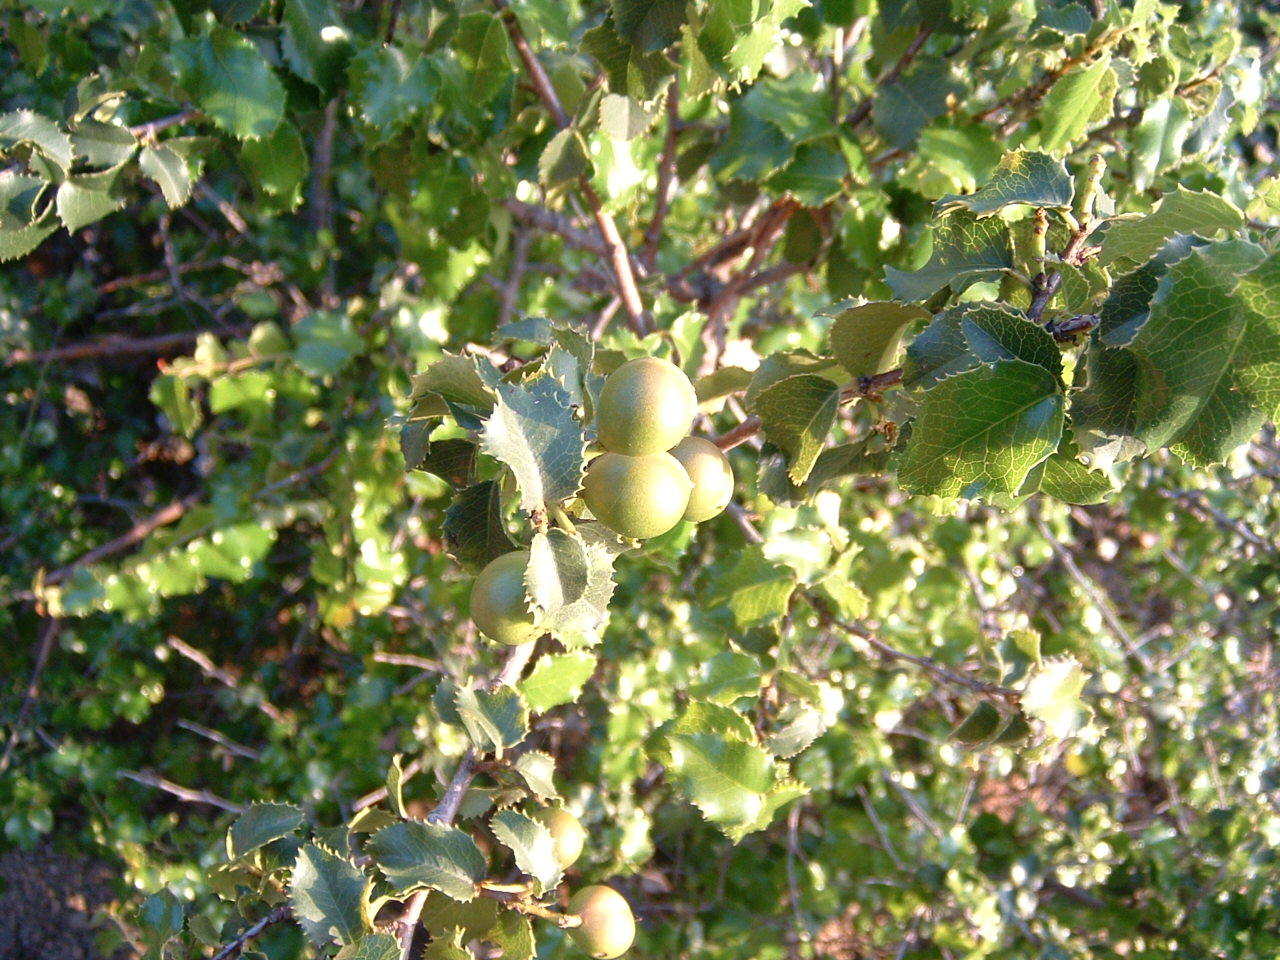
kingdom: Plantae
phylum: Tracheophyta
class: Magnoliopsida
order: Rosales
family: Rosaceae
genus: Prunus
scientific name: Prunus ilicifolia
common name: Hollyleaf cherry
